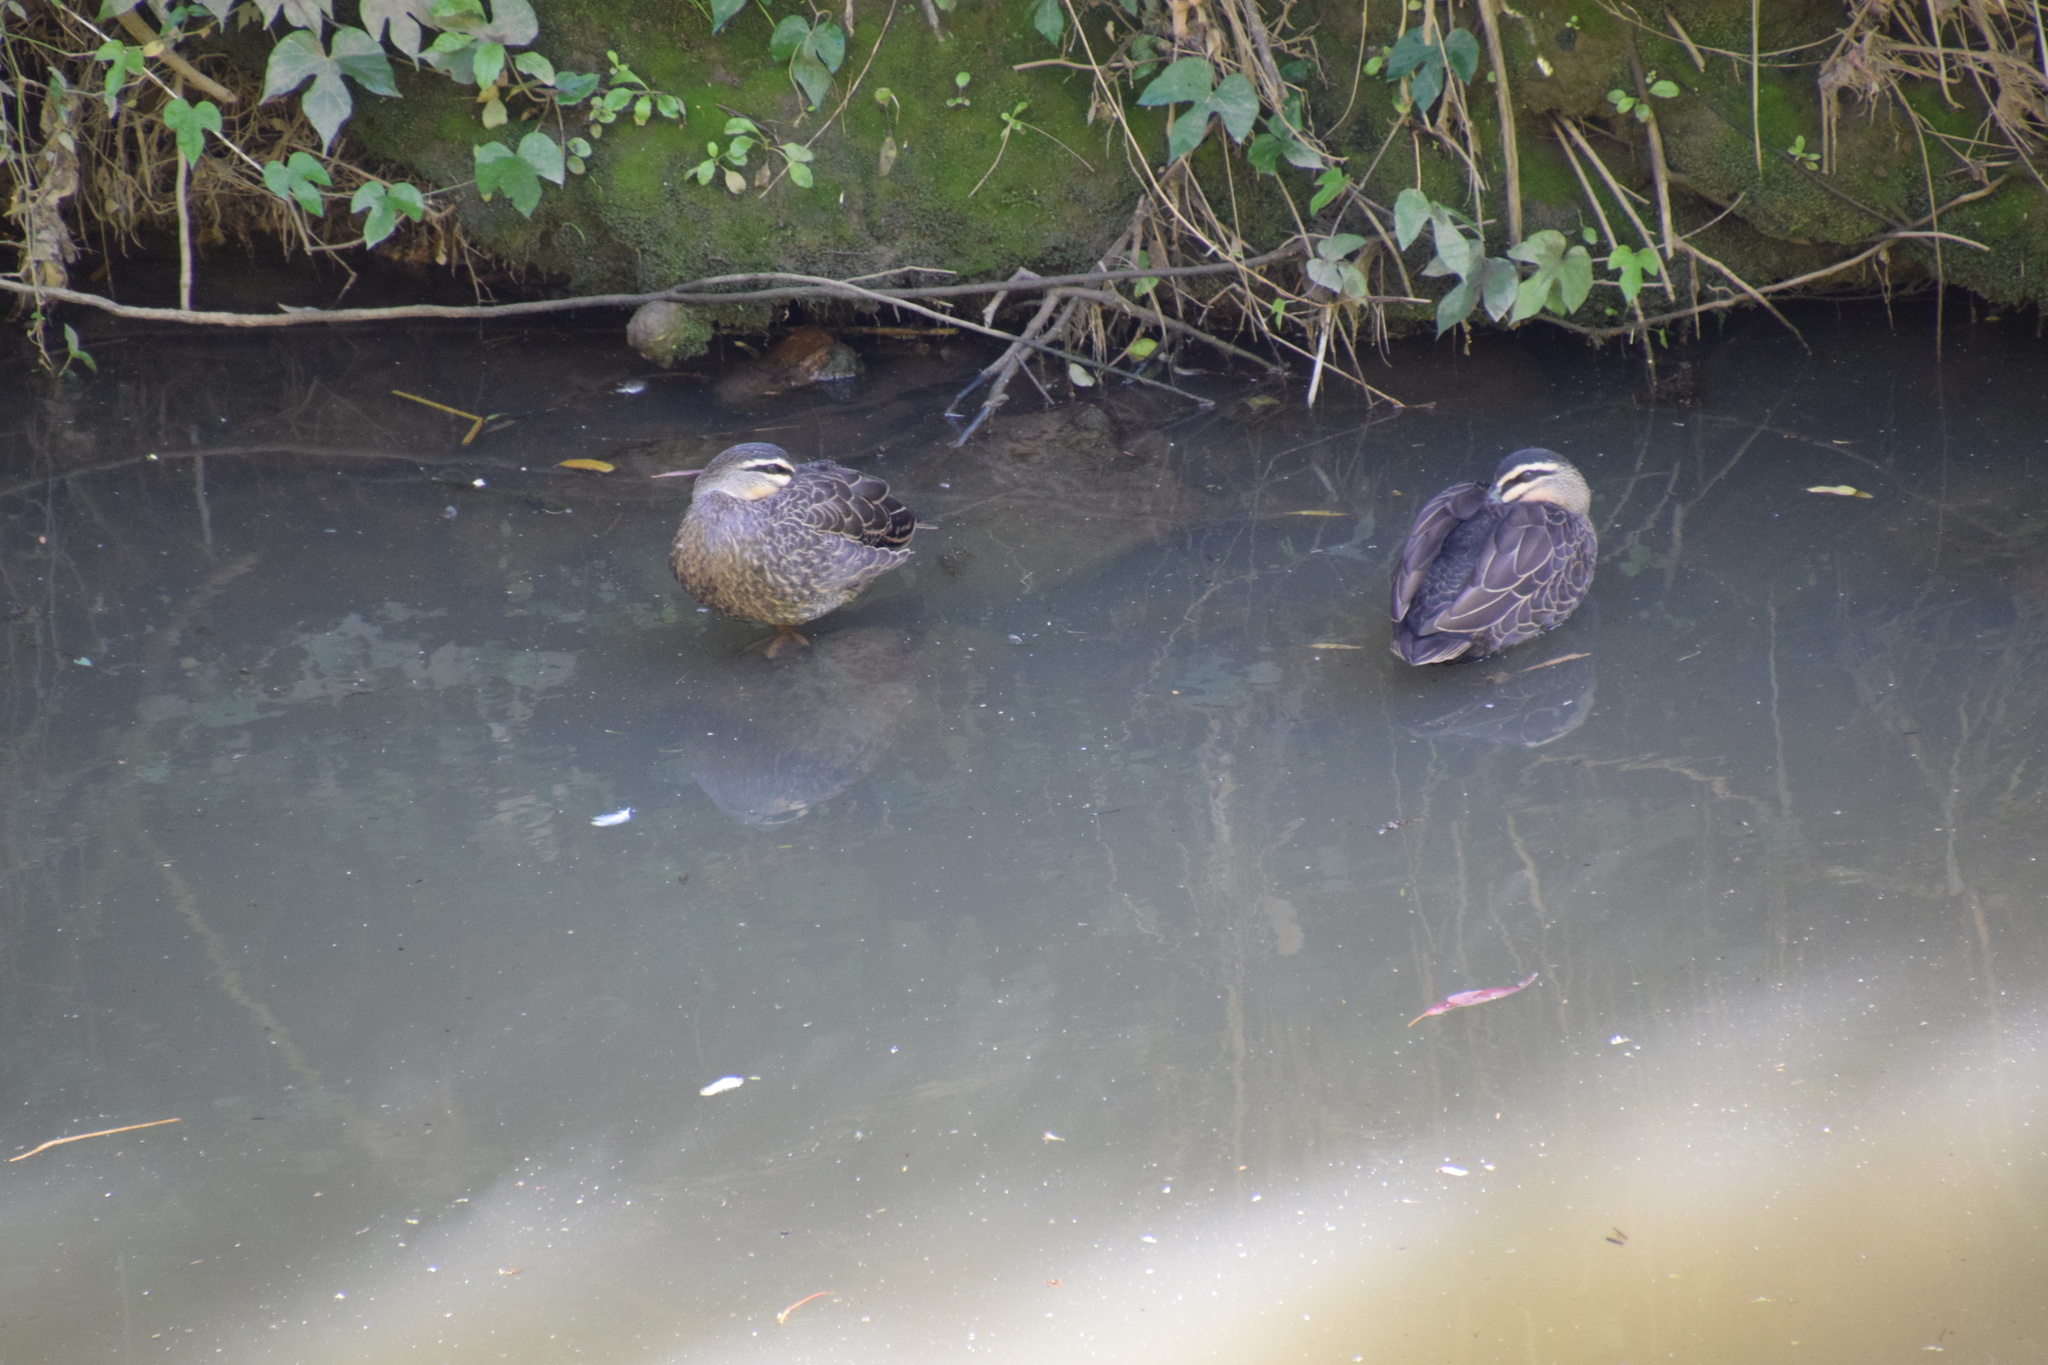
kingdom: Animalia
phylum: Chordata
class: Aves
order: Anseriformes
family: Anatidae
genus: Anas
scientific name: Anas superciliosa
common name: Pacific black duck
